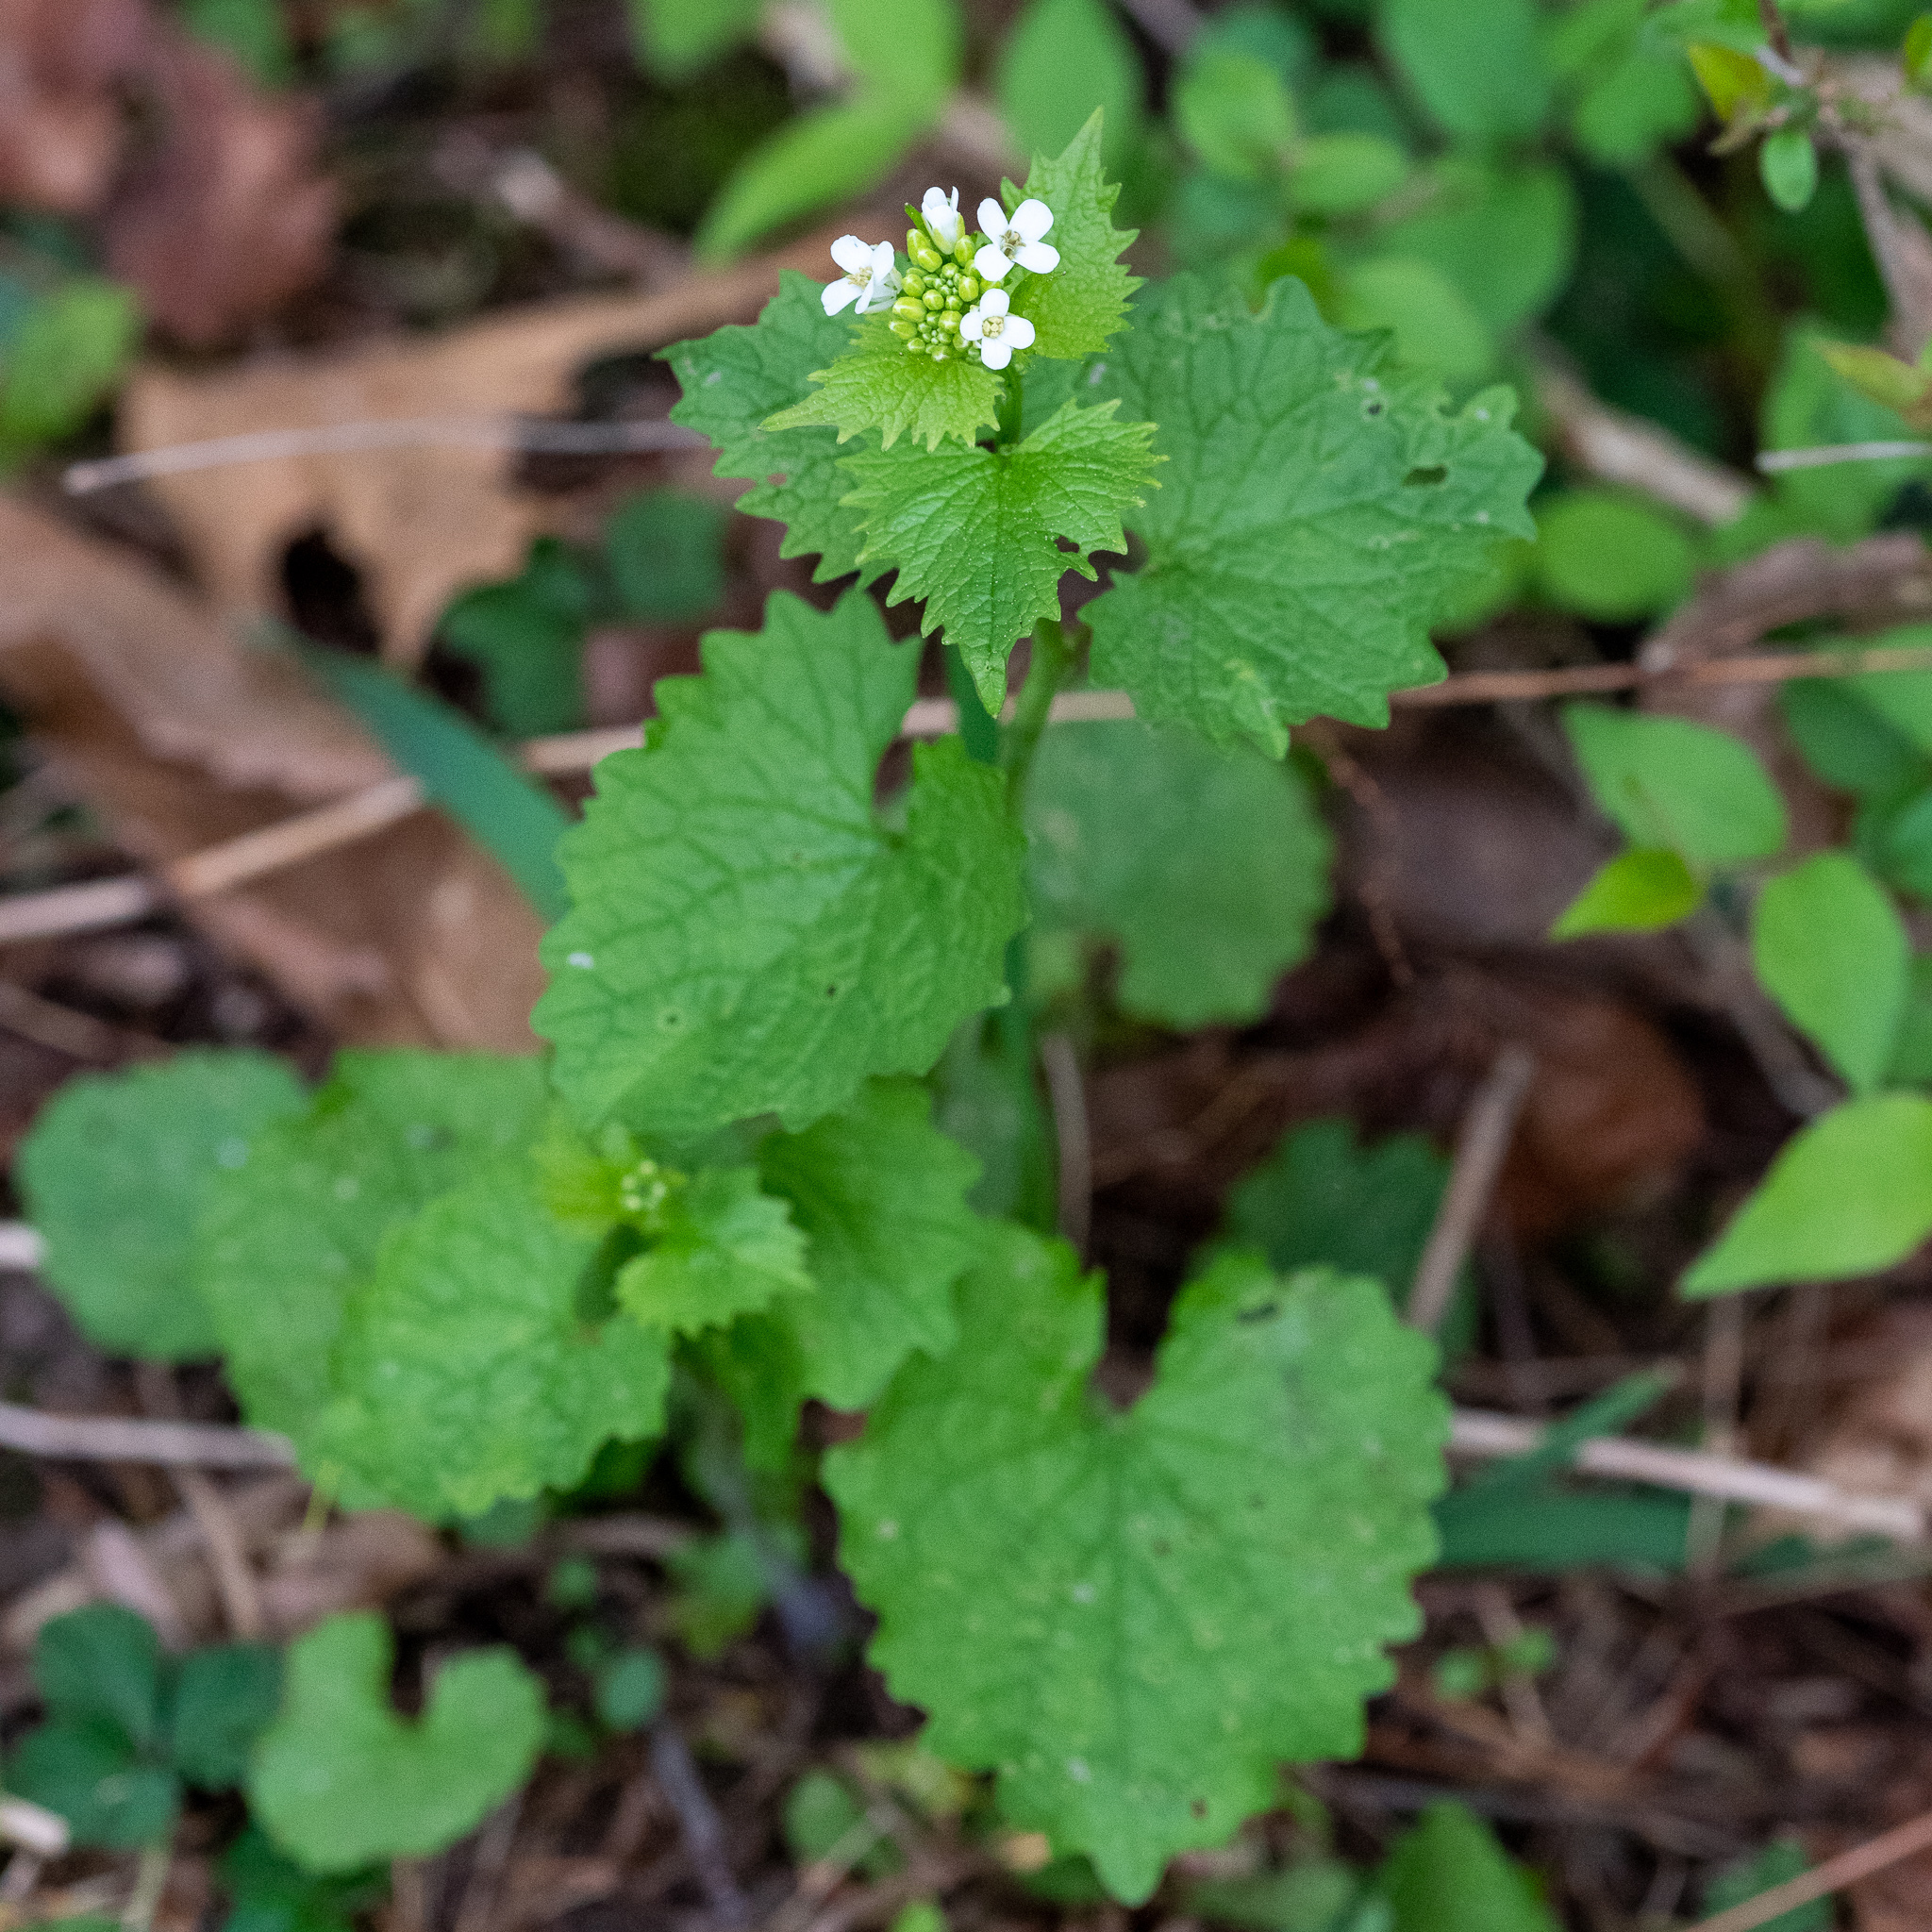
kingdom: Plantae
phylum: Tracheophyta
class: Magnoliopsida
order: Brassicales
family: Brassicaceae
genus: Alliaria
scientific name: Alliaria petiolata
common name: Garlic mustard
